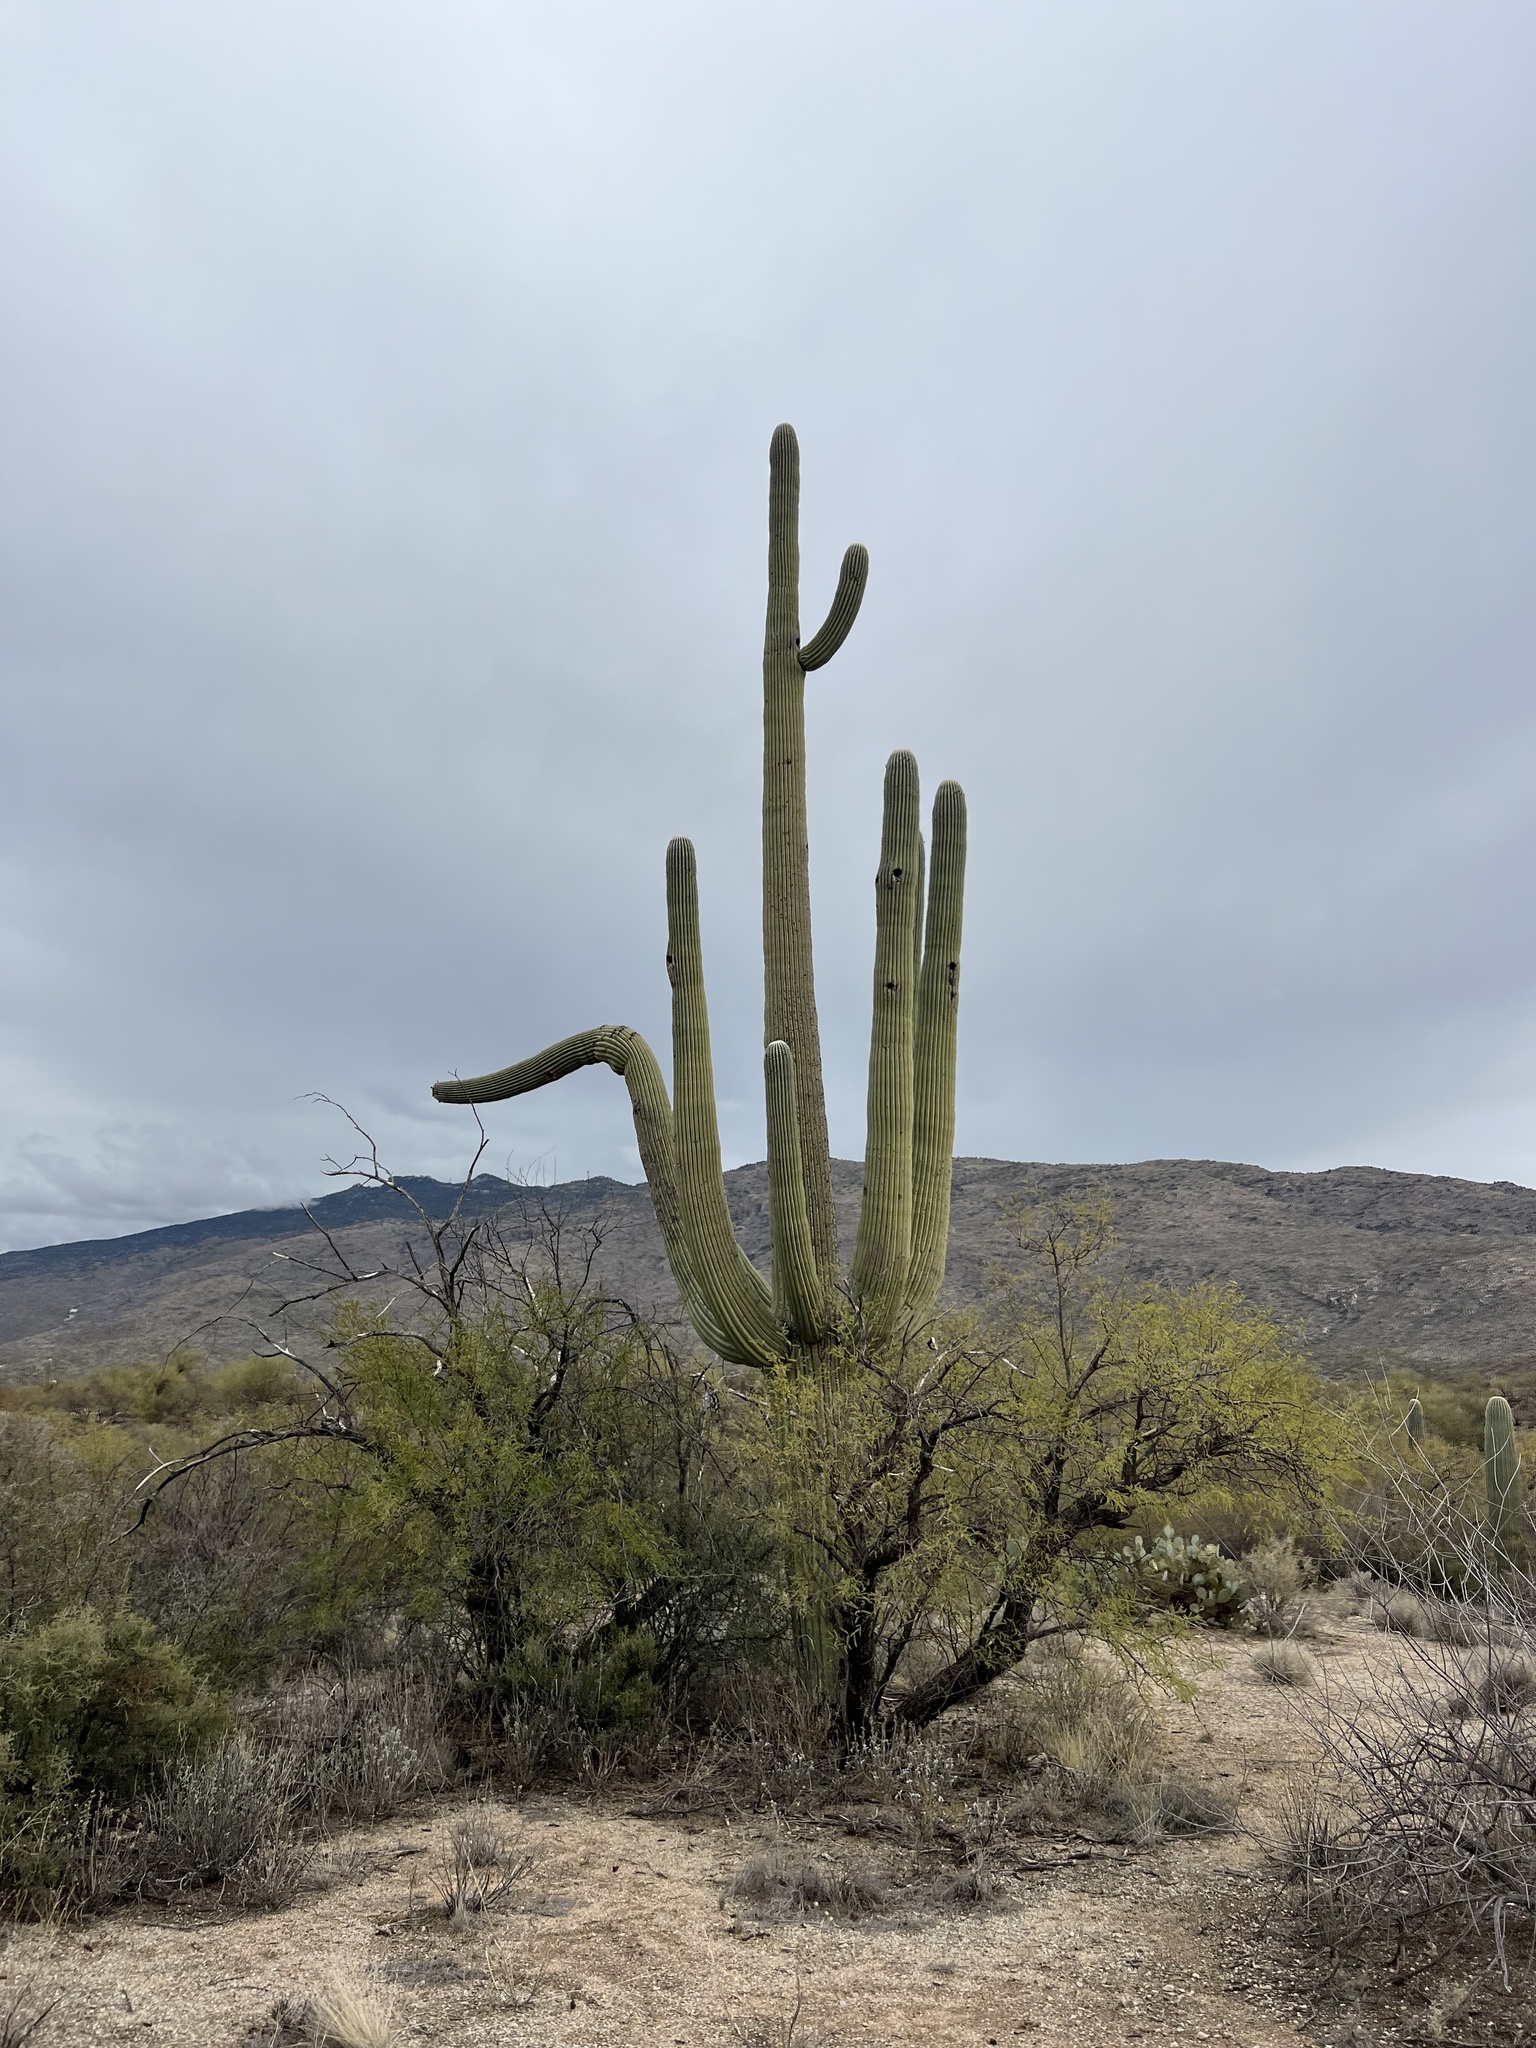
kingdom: Plantae
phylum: Tracheophyta
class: Magnoliopsida
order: Caryophyllales
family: Cactaceae
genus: Carnegiea
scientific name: Carnegiea gigantea
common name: Saguaro
